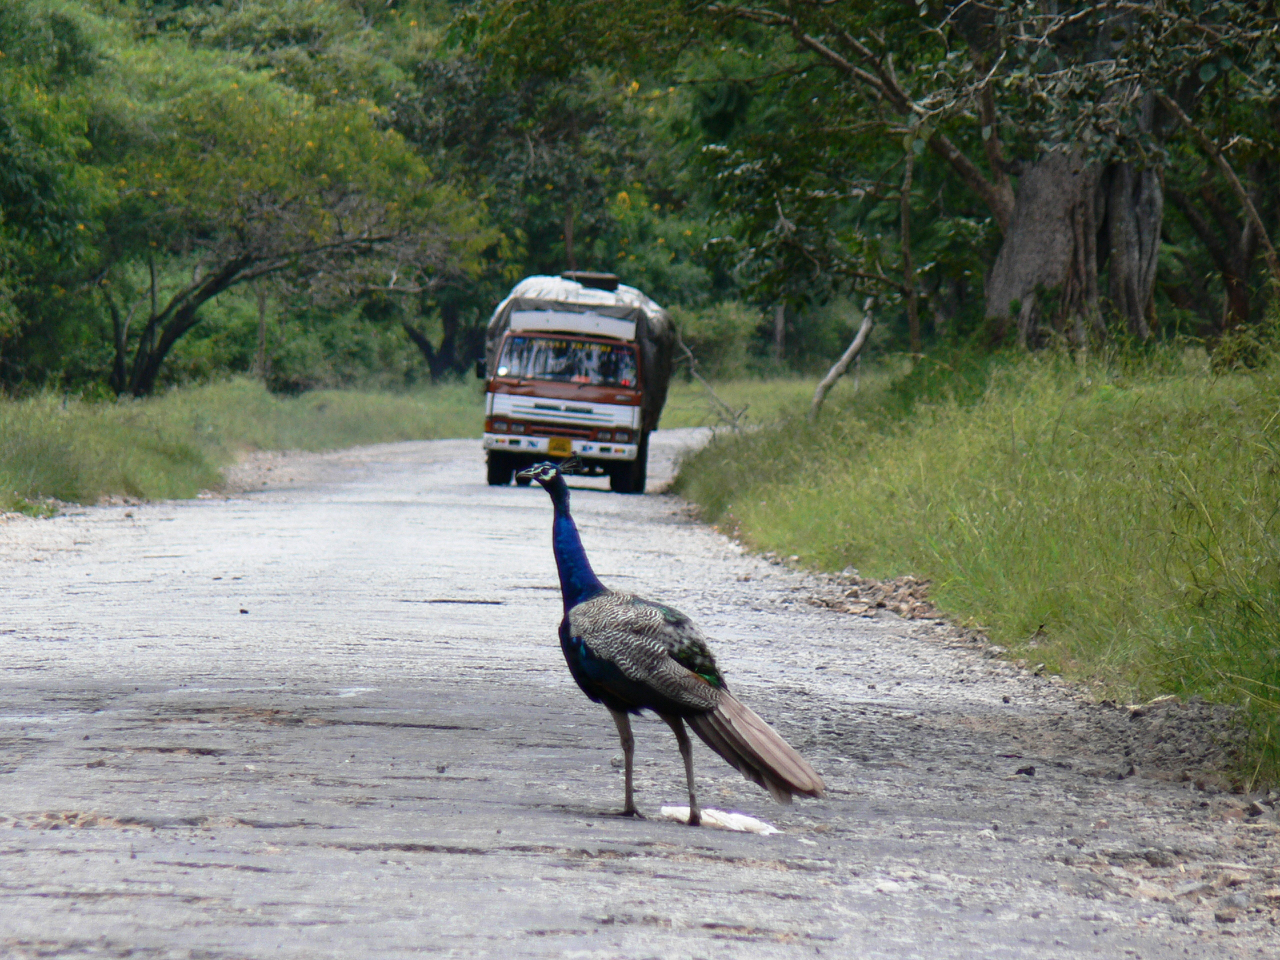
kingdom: Animalia
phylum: Chordata
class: Aves
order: Galliformes
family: Phasianidae
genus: Pavo
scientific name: Pavo cristatus
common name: Indian peafowl
